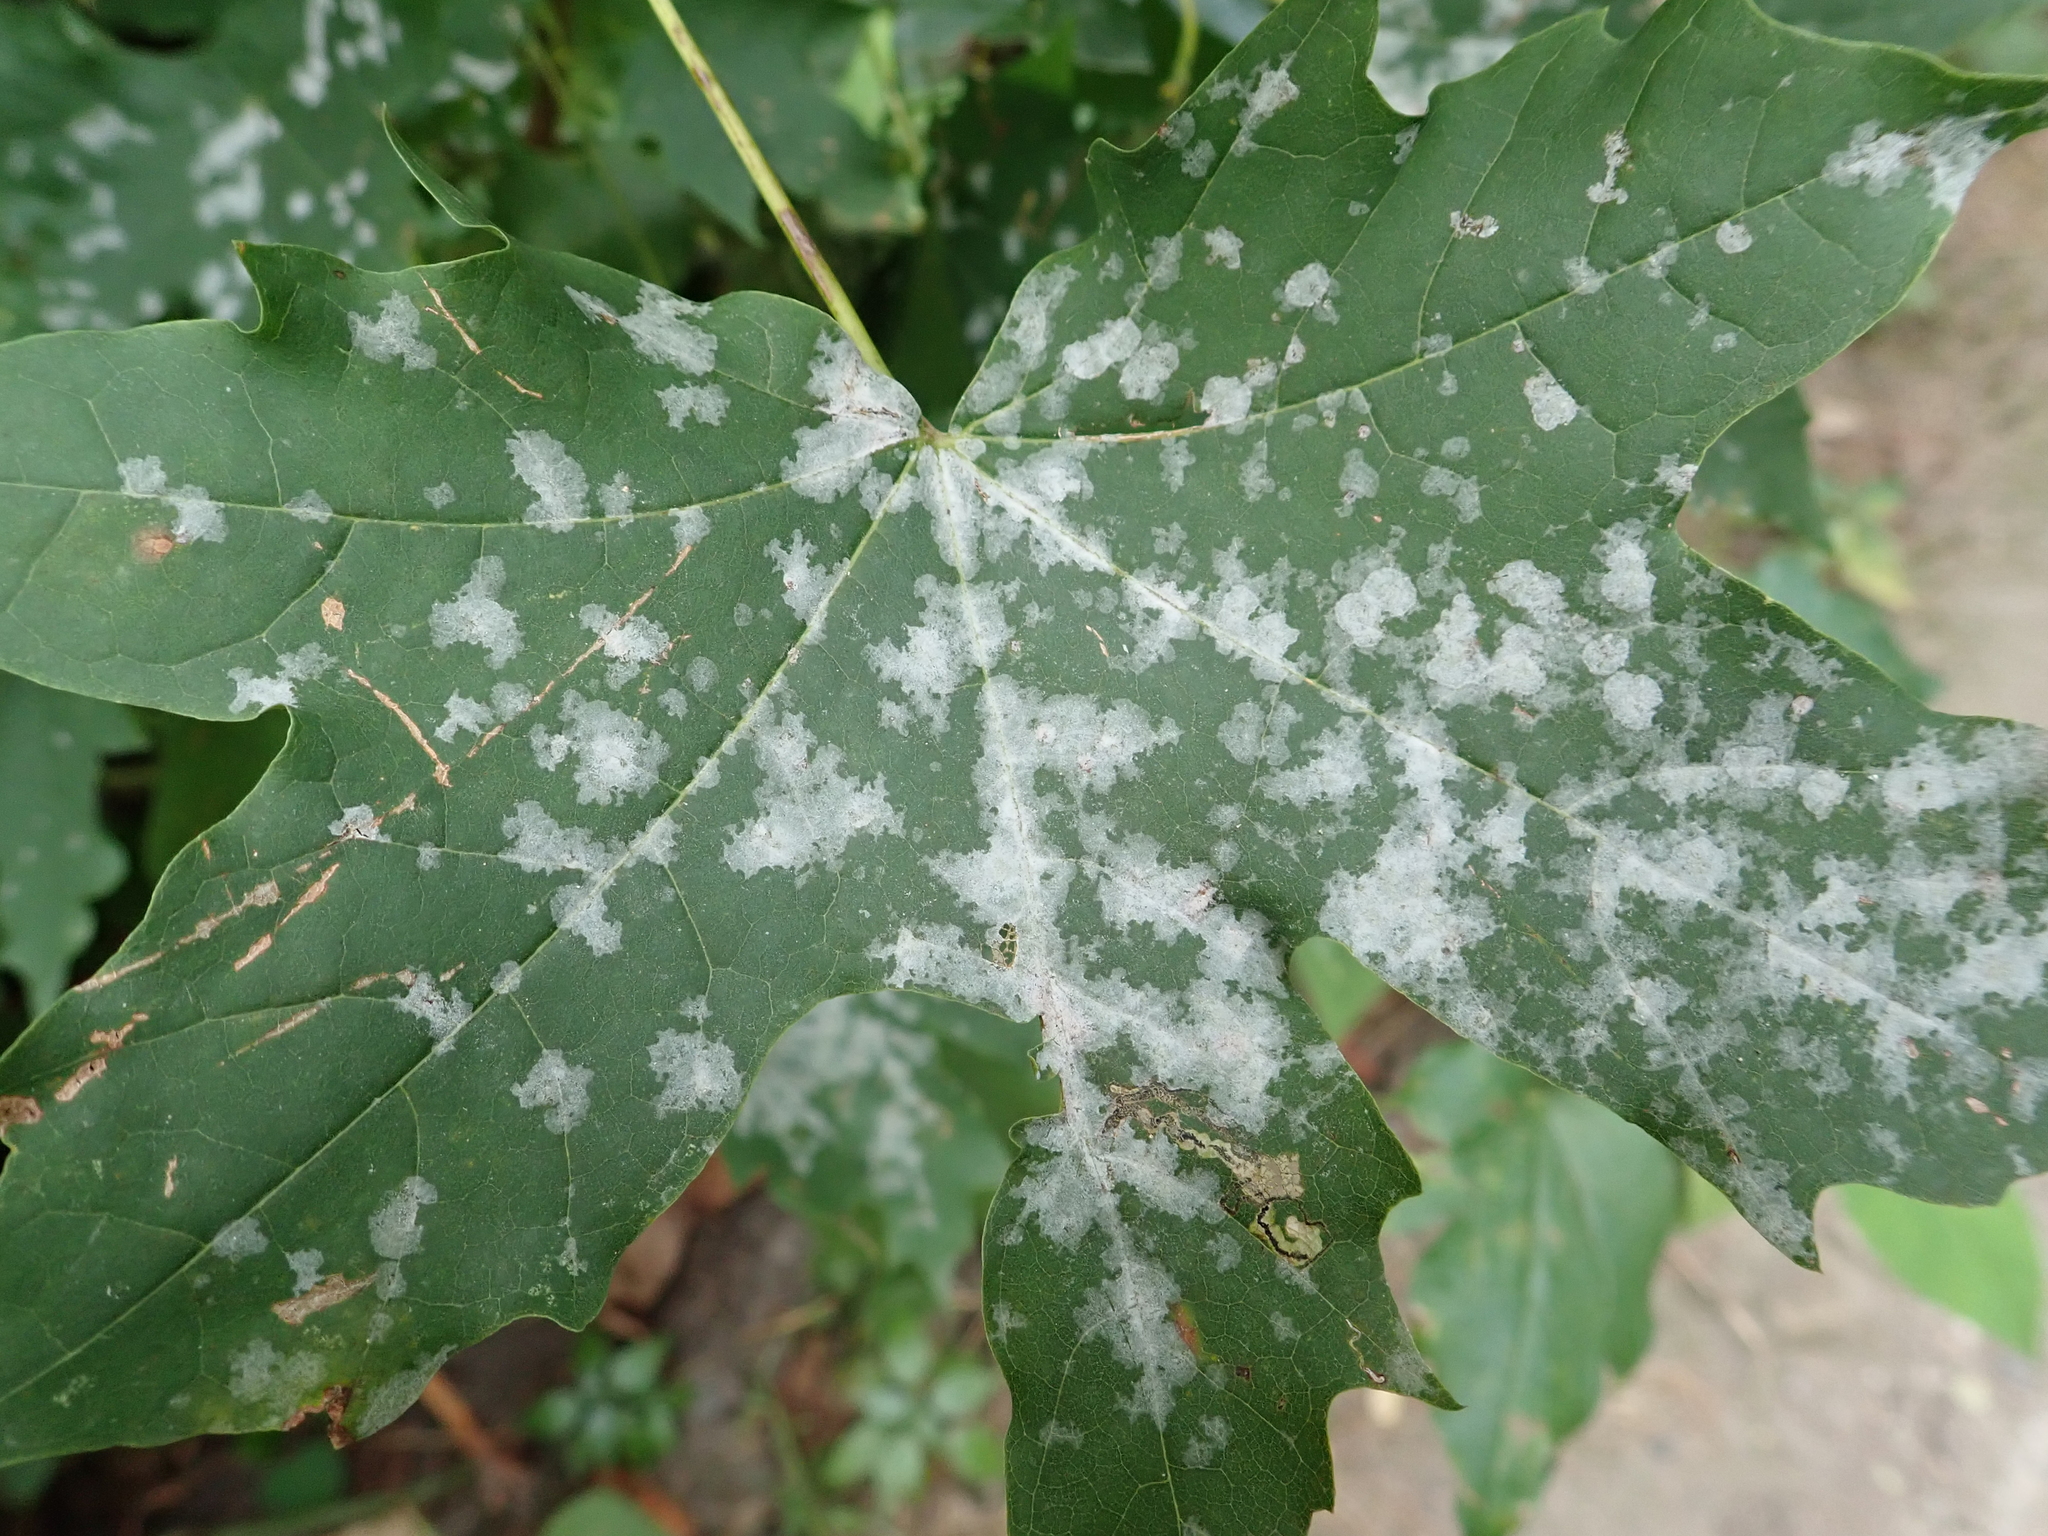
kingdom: Fungi
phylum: Ascomycota
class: Leotiomycetes
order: Helotiales
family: Erysiphaceae
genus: Sawadaea
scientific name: Sawadaea tulasnei
